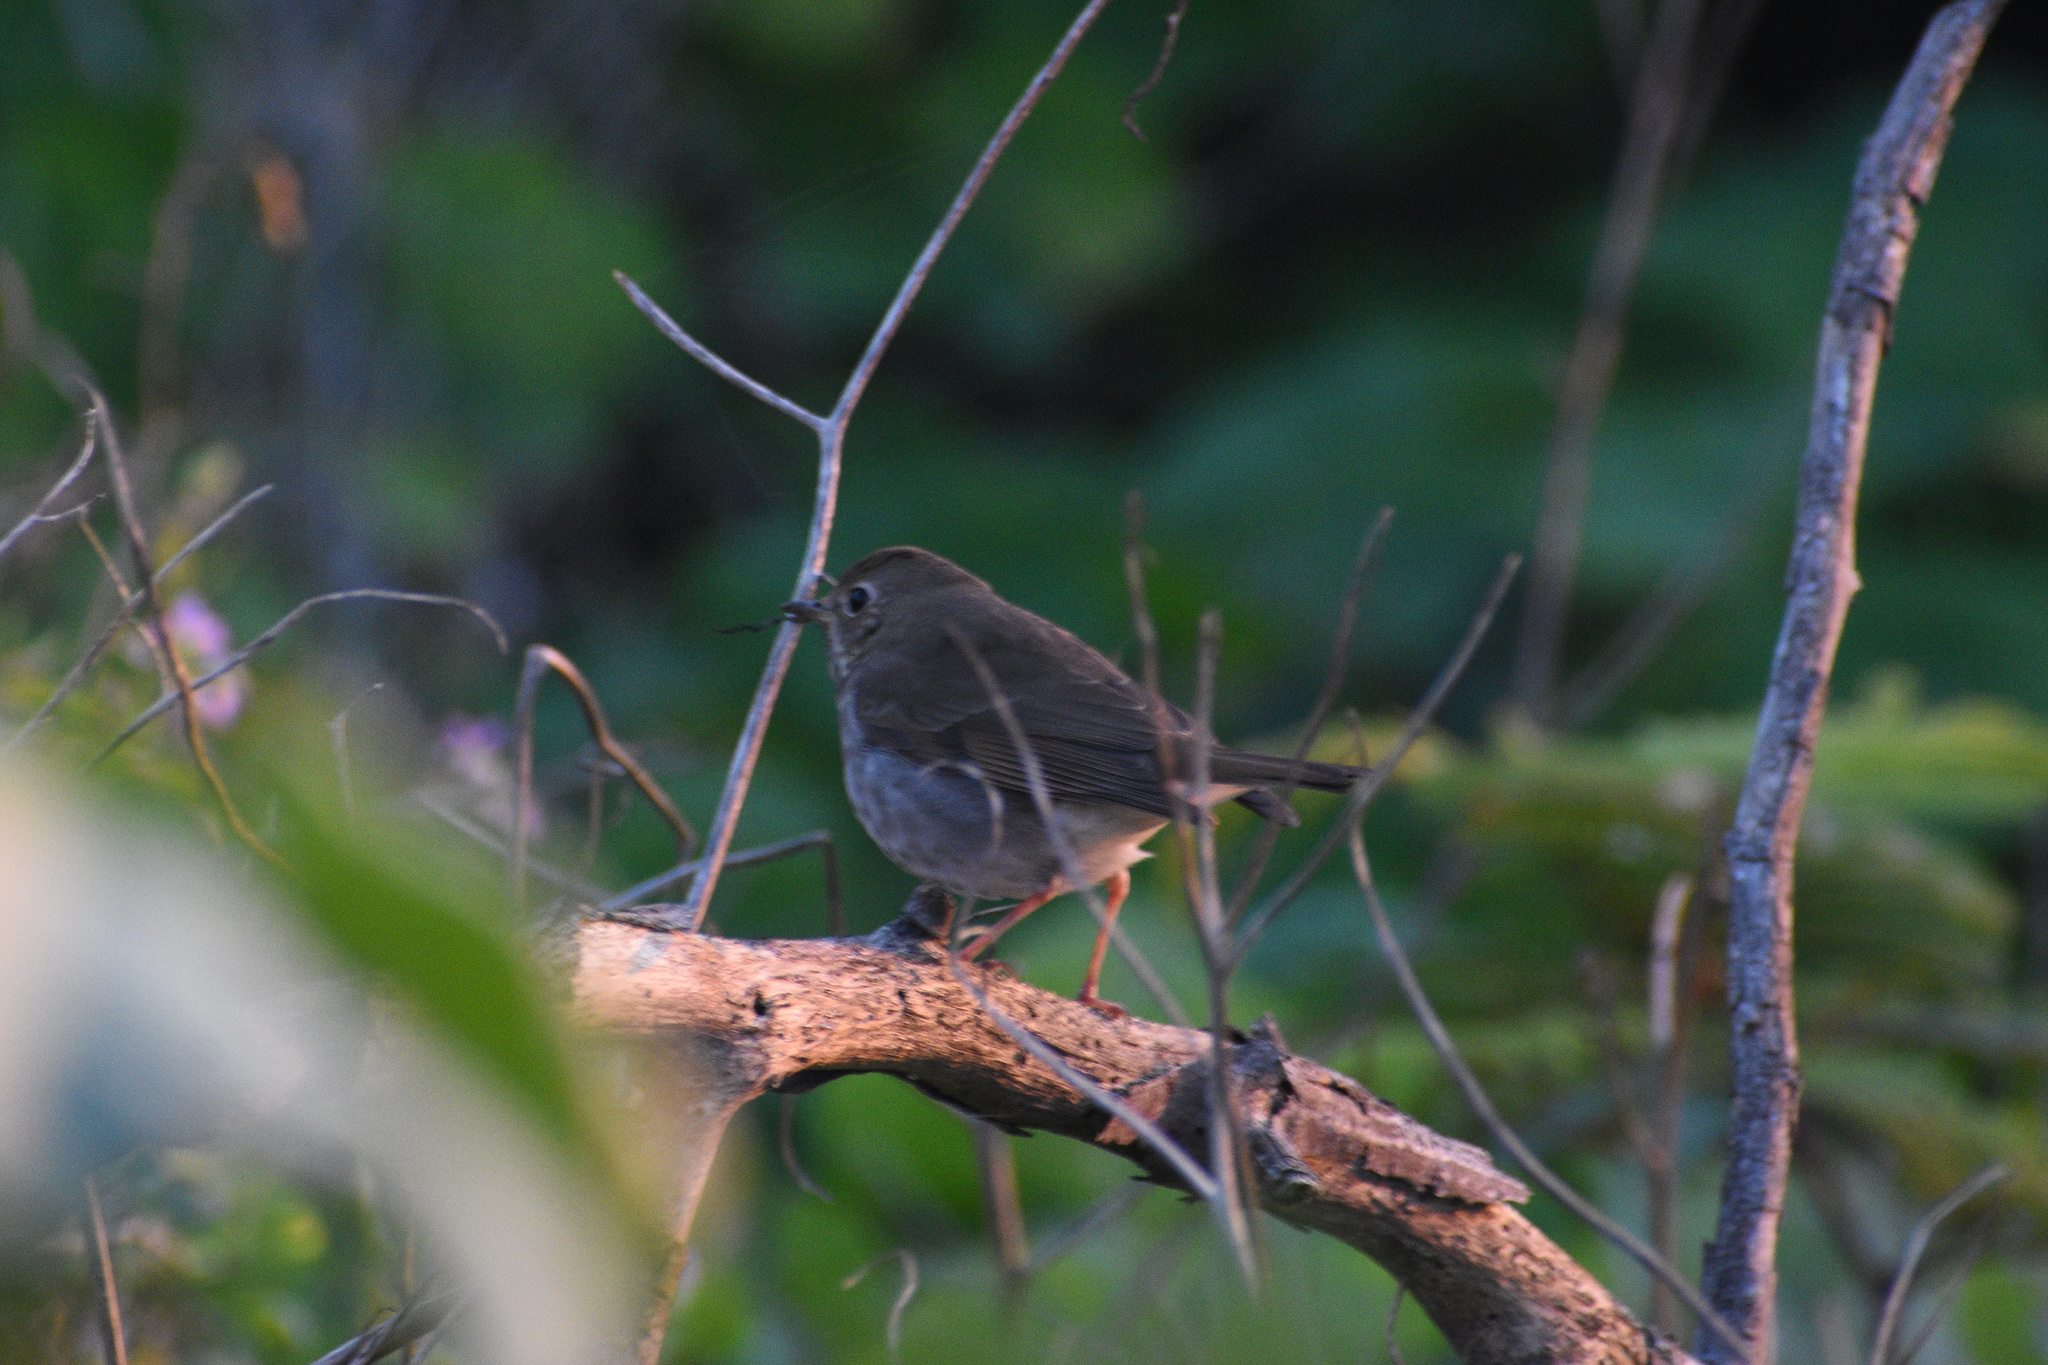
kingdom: Animalia
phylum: Chordata
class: Aves
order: Passeriformes
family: Turdidae
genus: Catharus
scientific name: Catharus guttatus
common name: Hermit thrush
